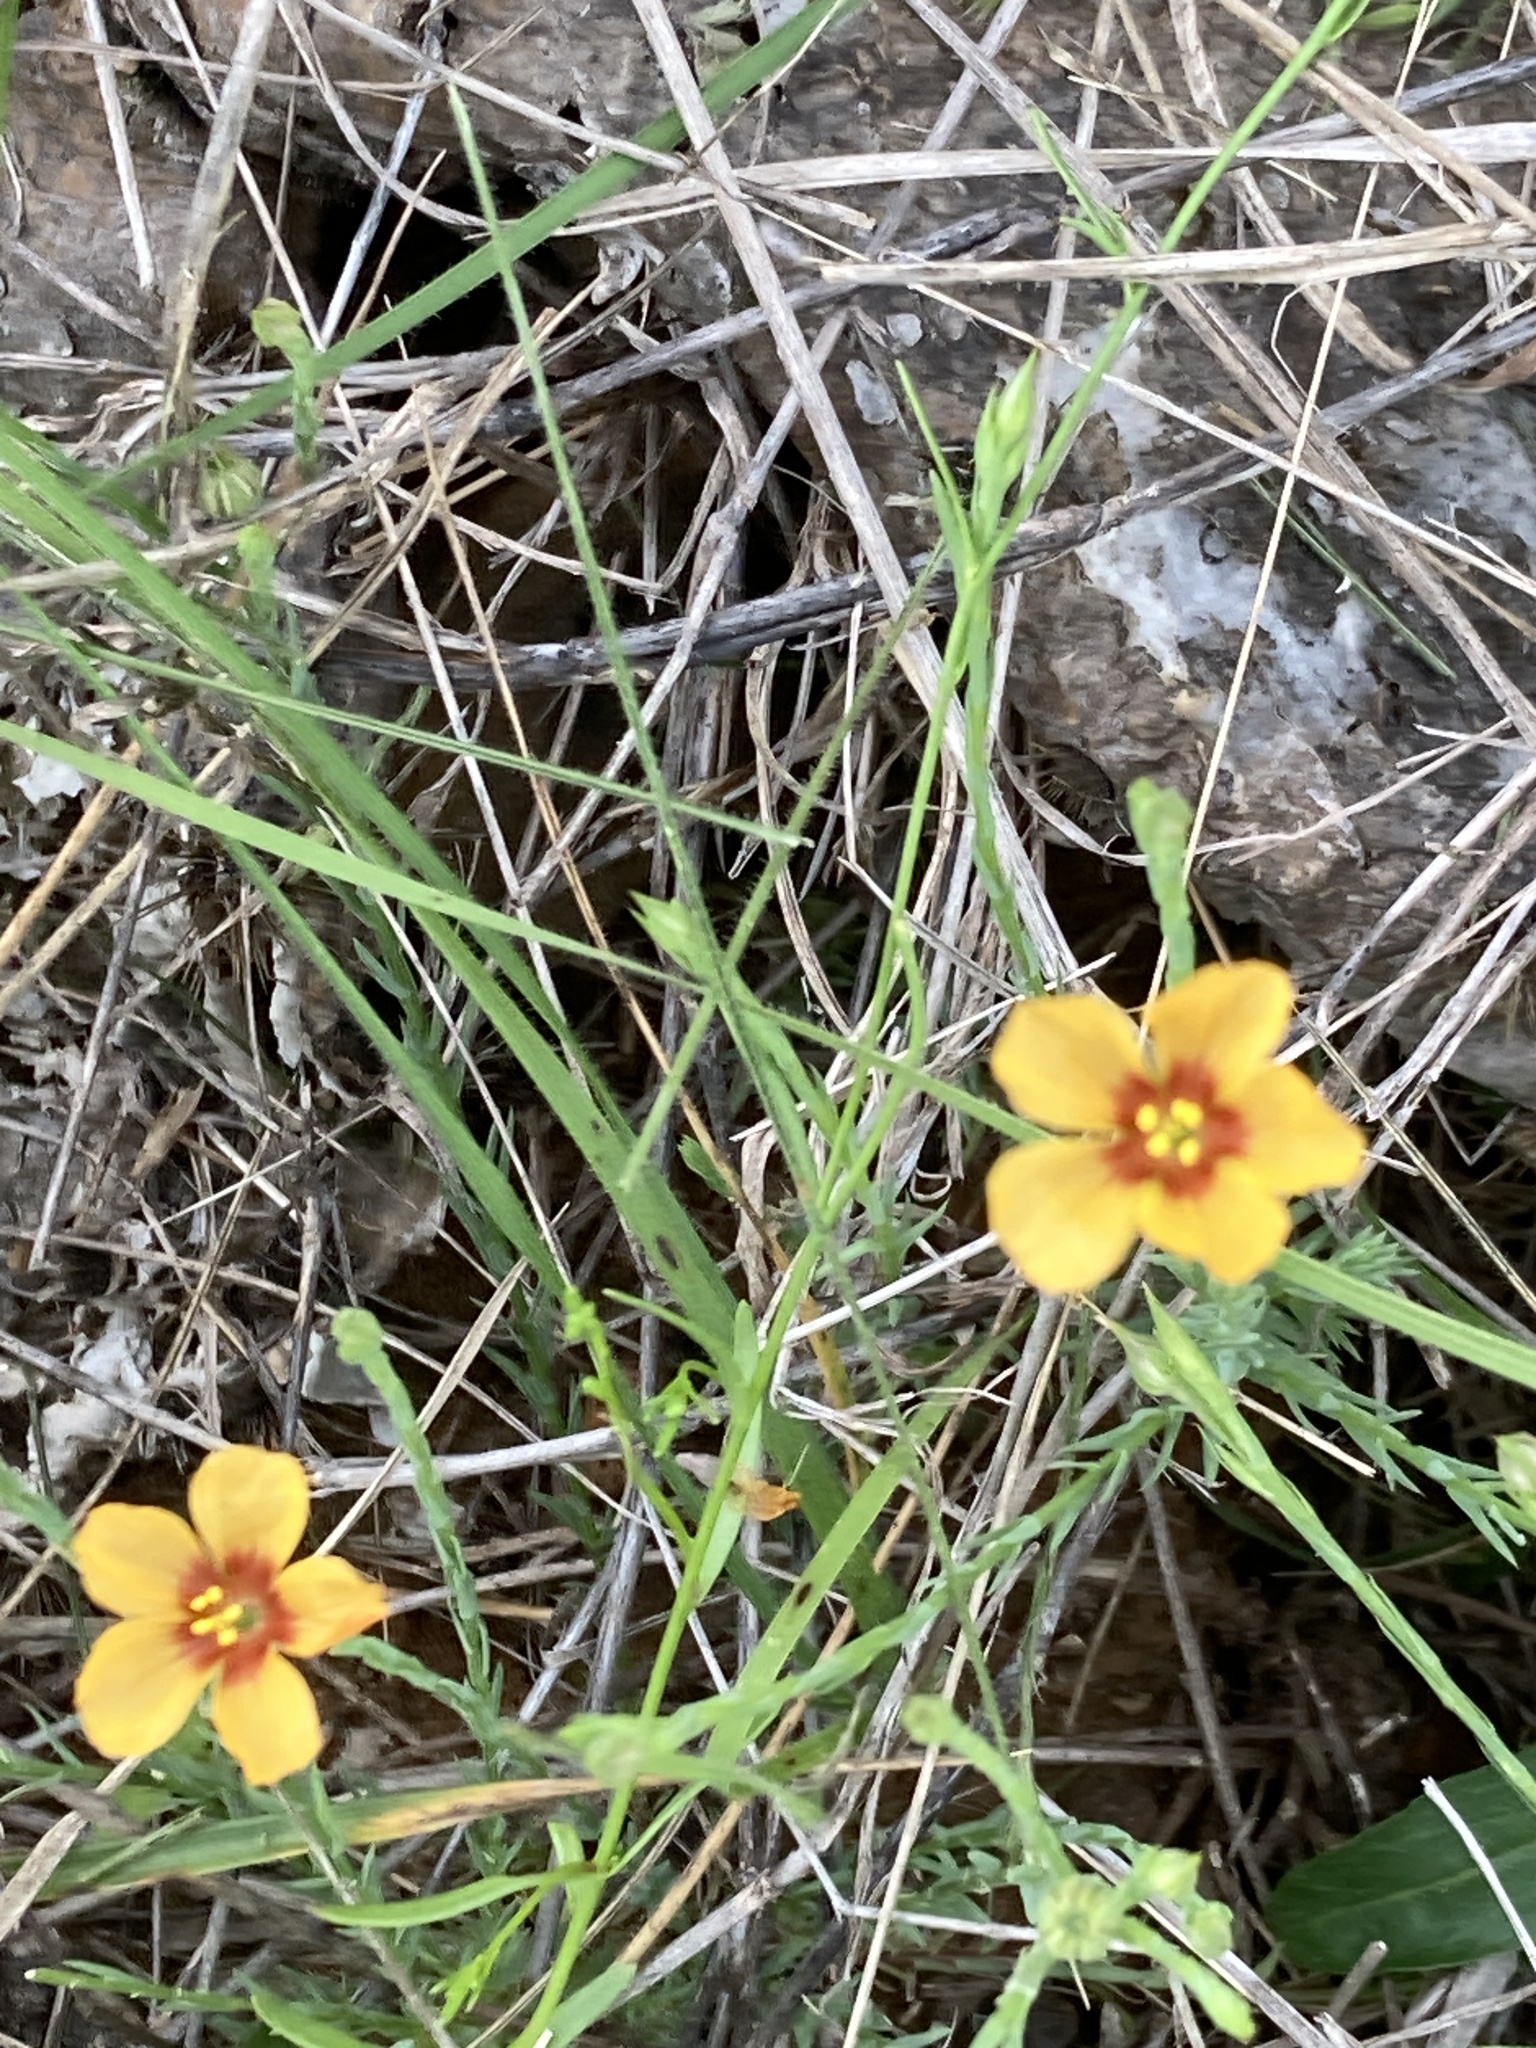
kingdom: Plantae
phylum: Tracheophyta
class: Magnoliopsida
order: Malpighiales
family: Linaceae
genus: Linum
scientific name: Linum hudsonioides
